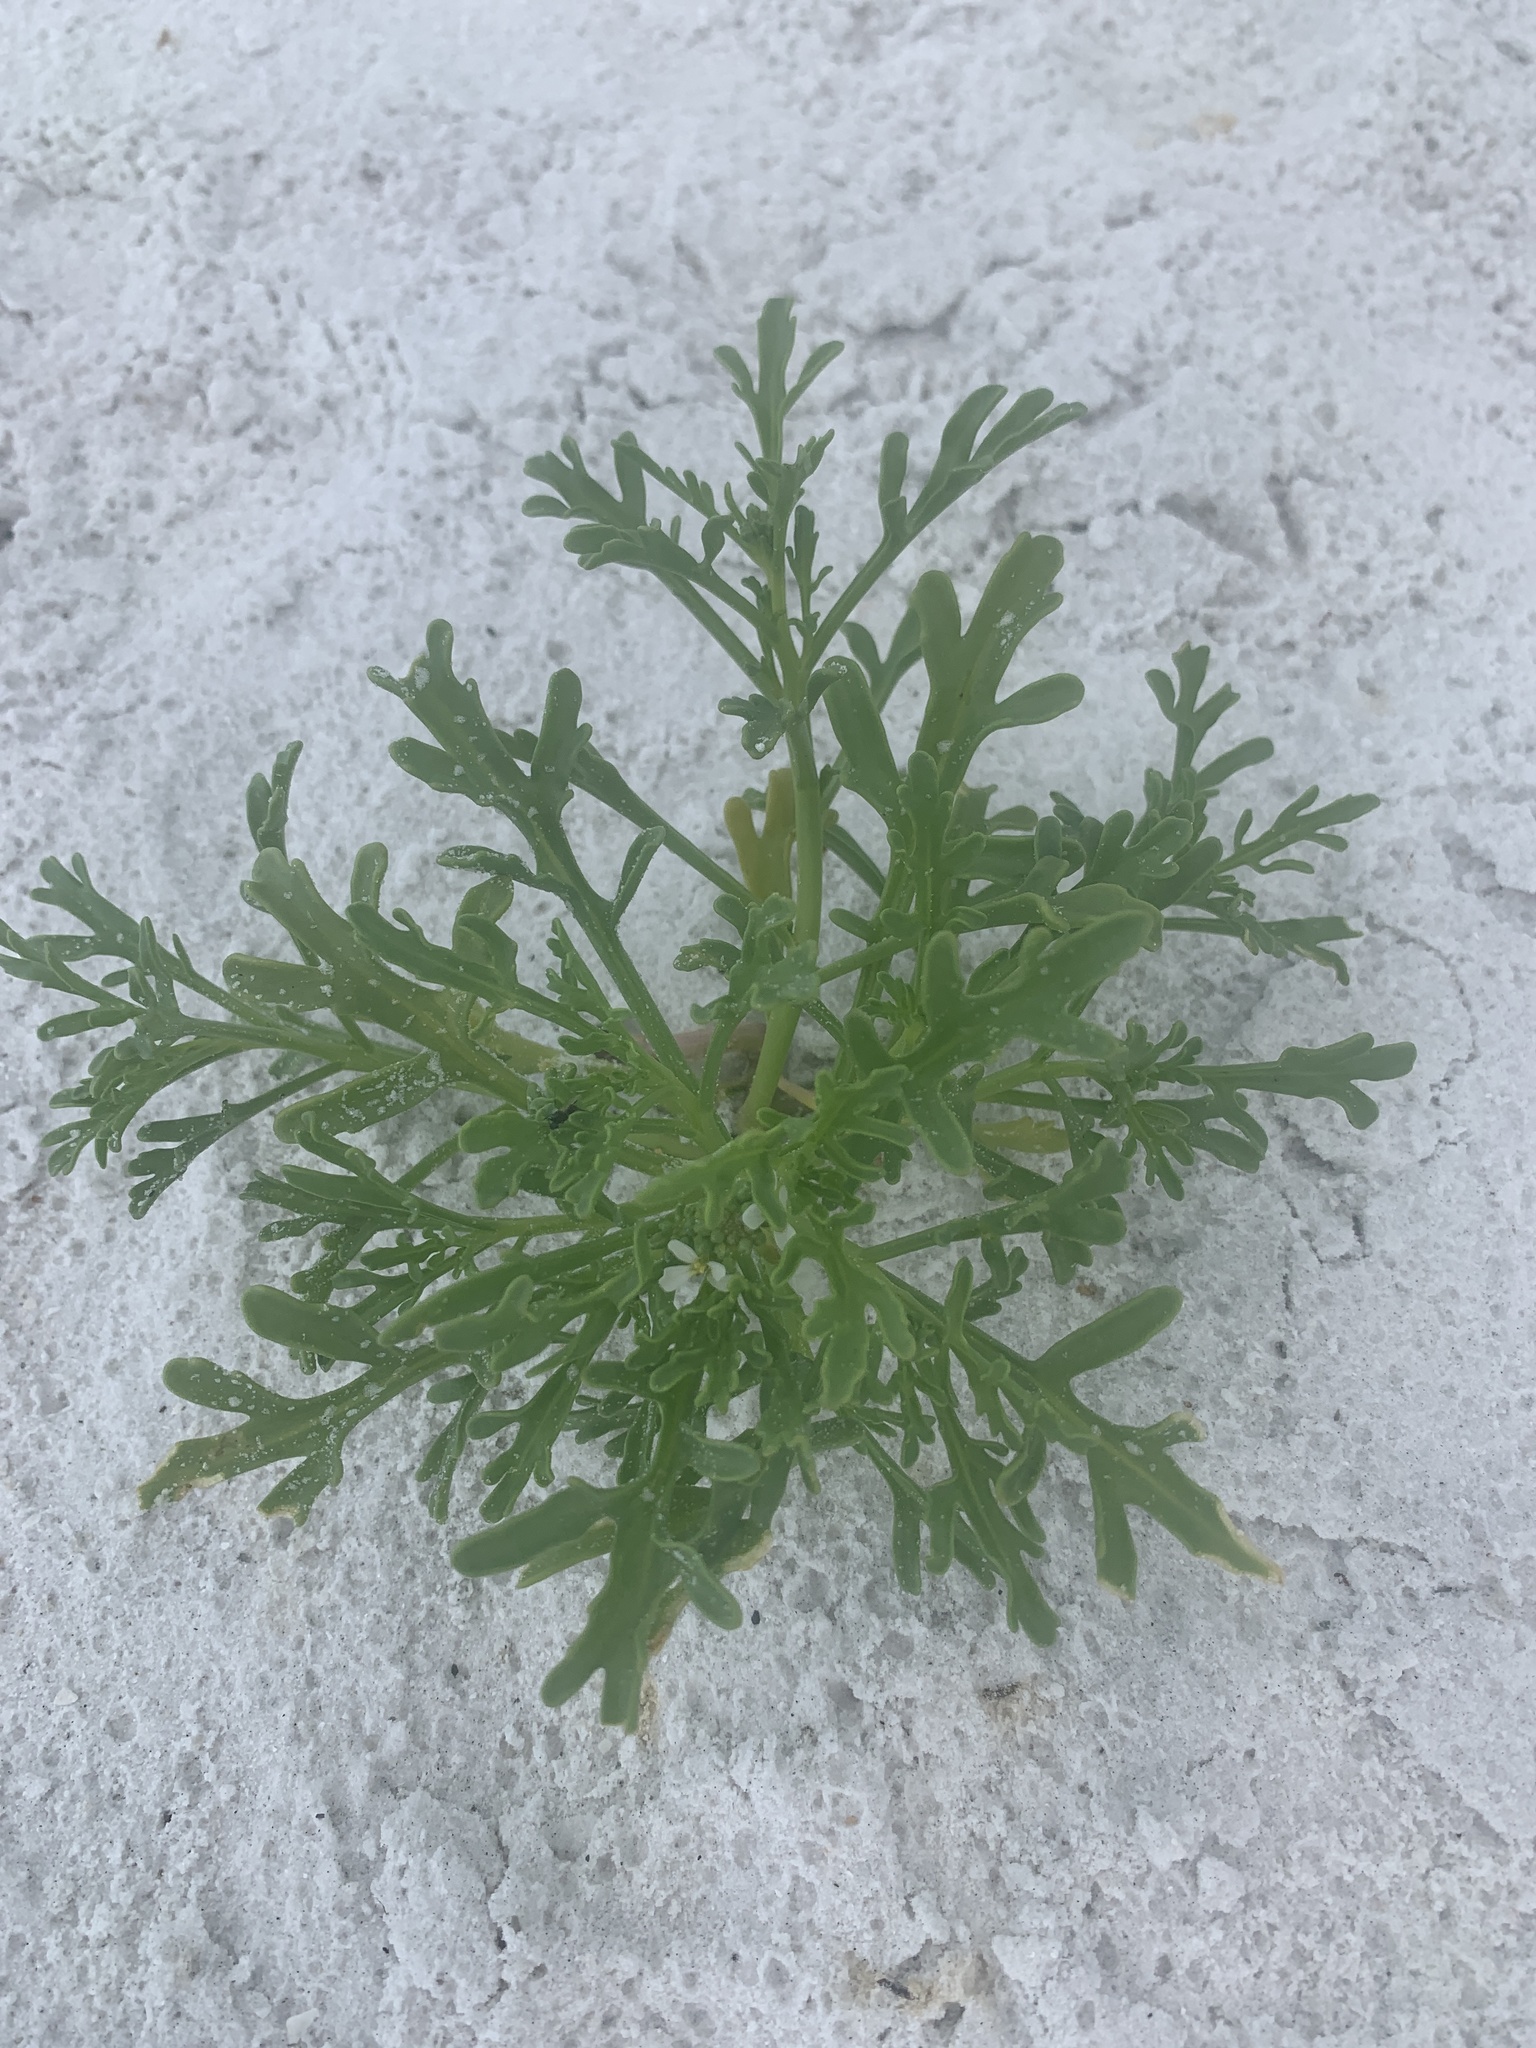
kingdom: Plantae
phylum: Tracheophyta
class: Magnoliopsida
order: Brassicales
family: Brassicaceae
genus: Cakile
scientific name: Cakile lanceolata
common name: Sea rocket
